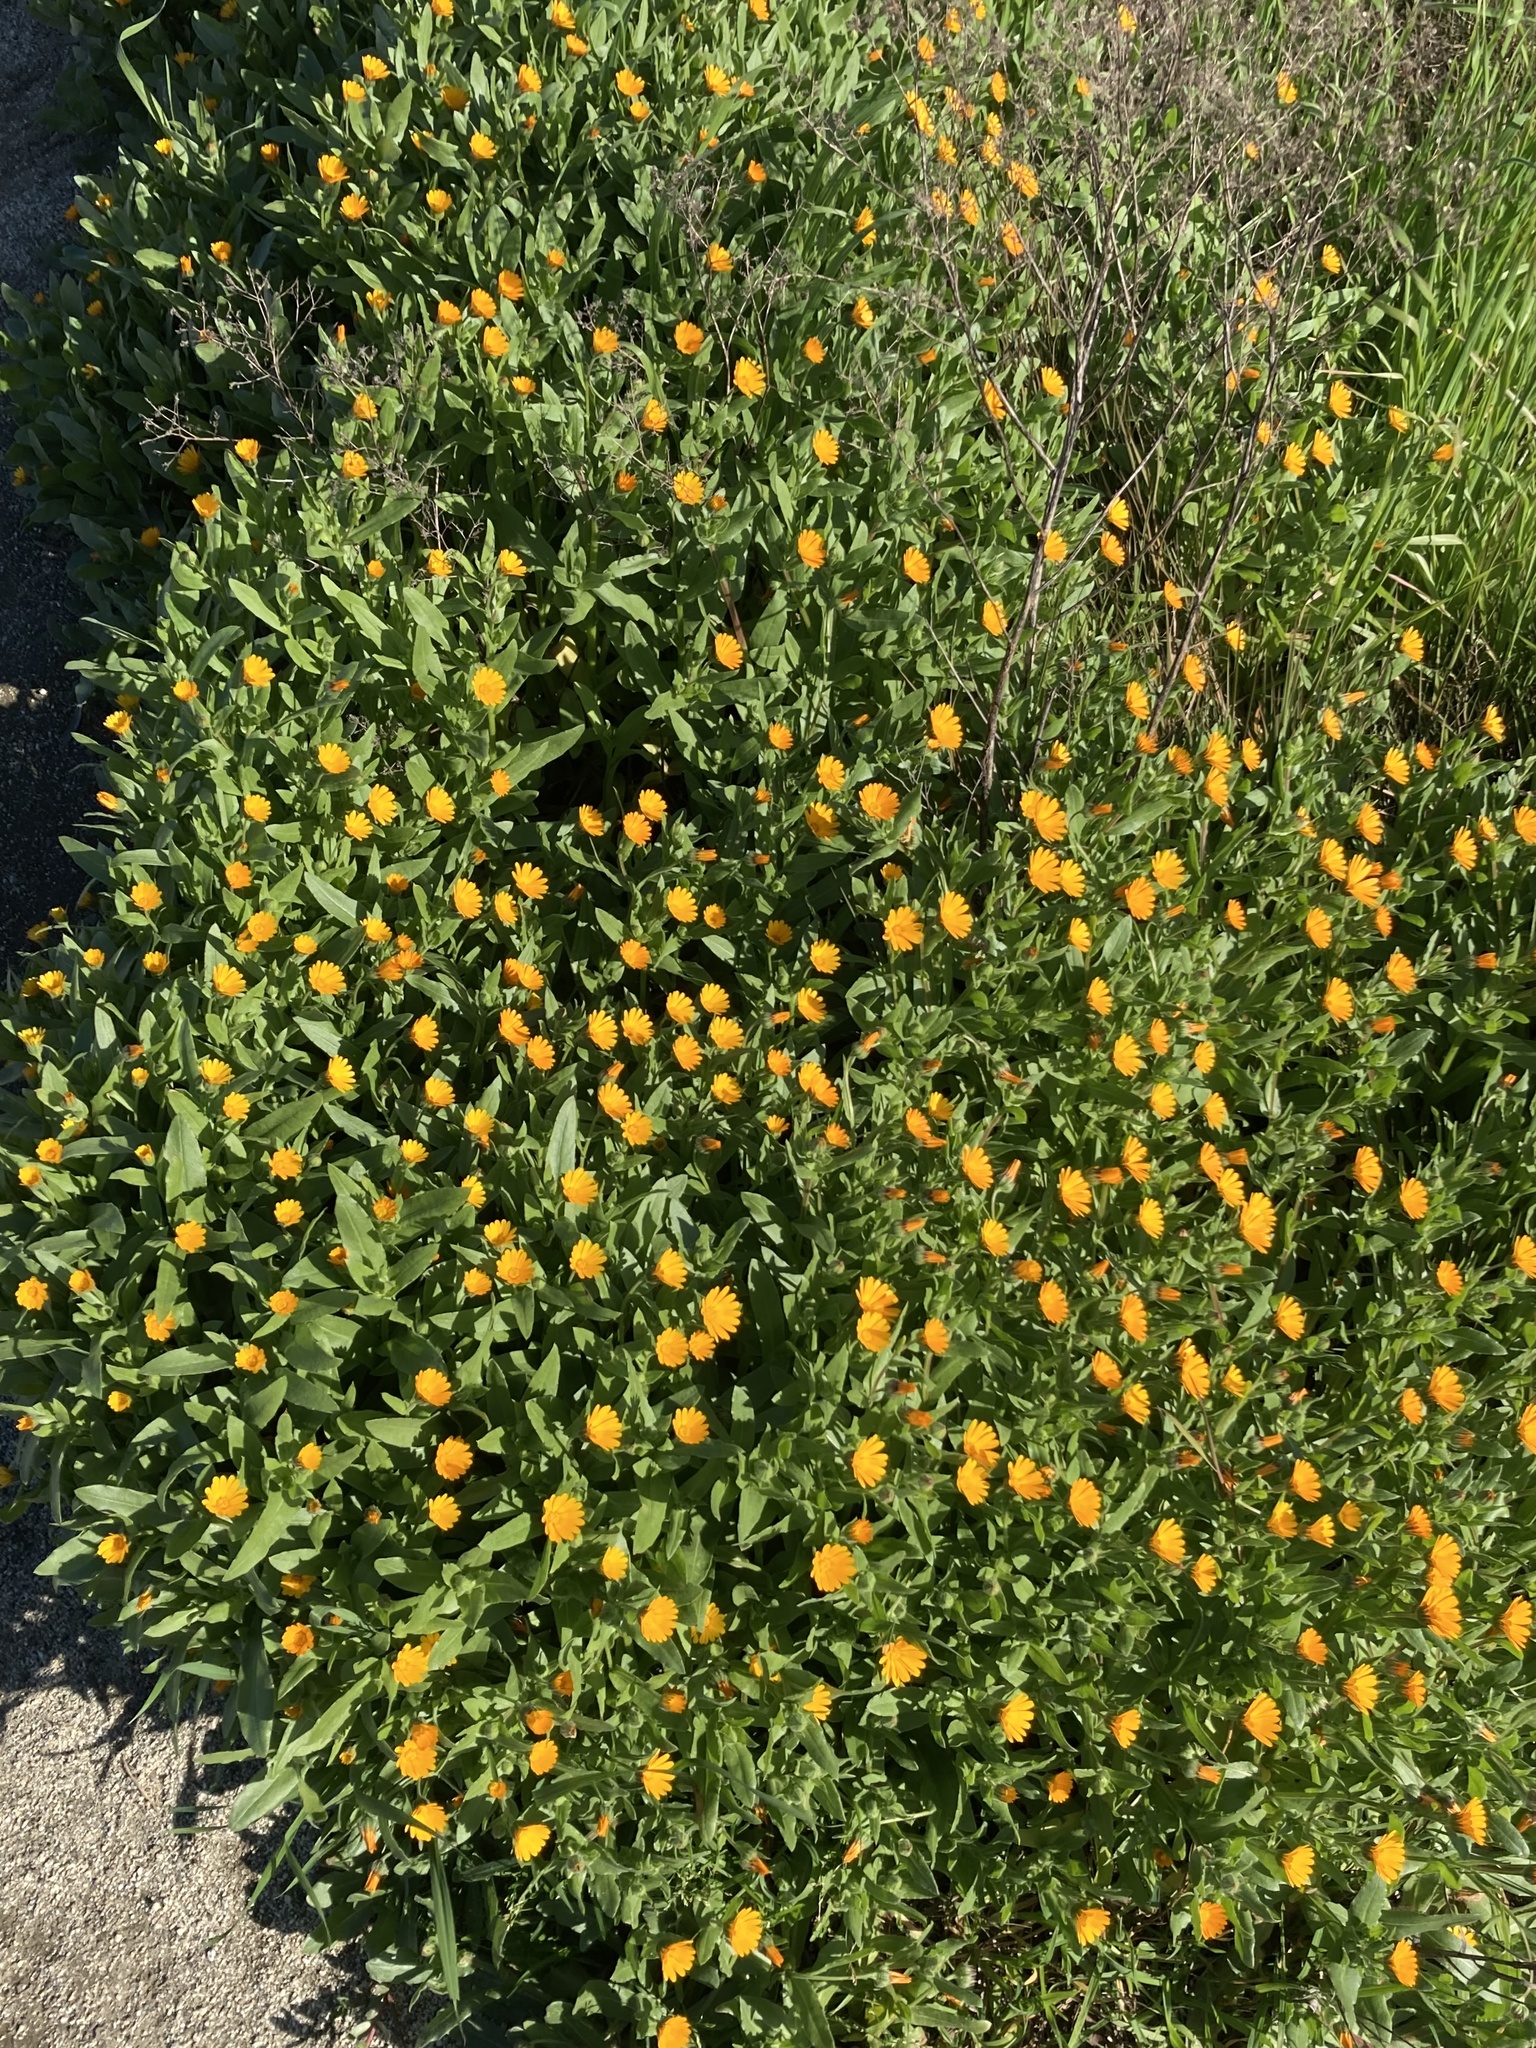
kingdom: Plantae
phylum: Tracheophyta
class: Magnoliopsida
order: Asterales
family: Asteraceae
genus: Calendula
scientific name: Calendula arvensis
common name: Field marigold
